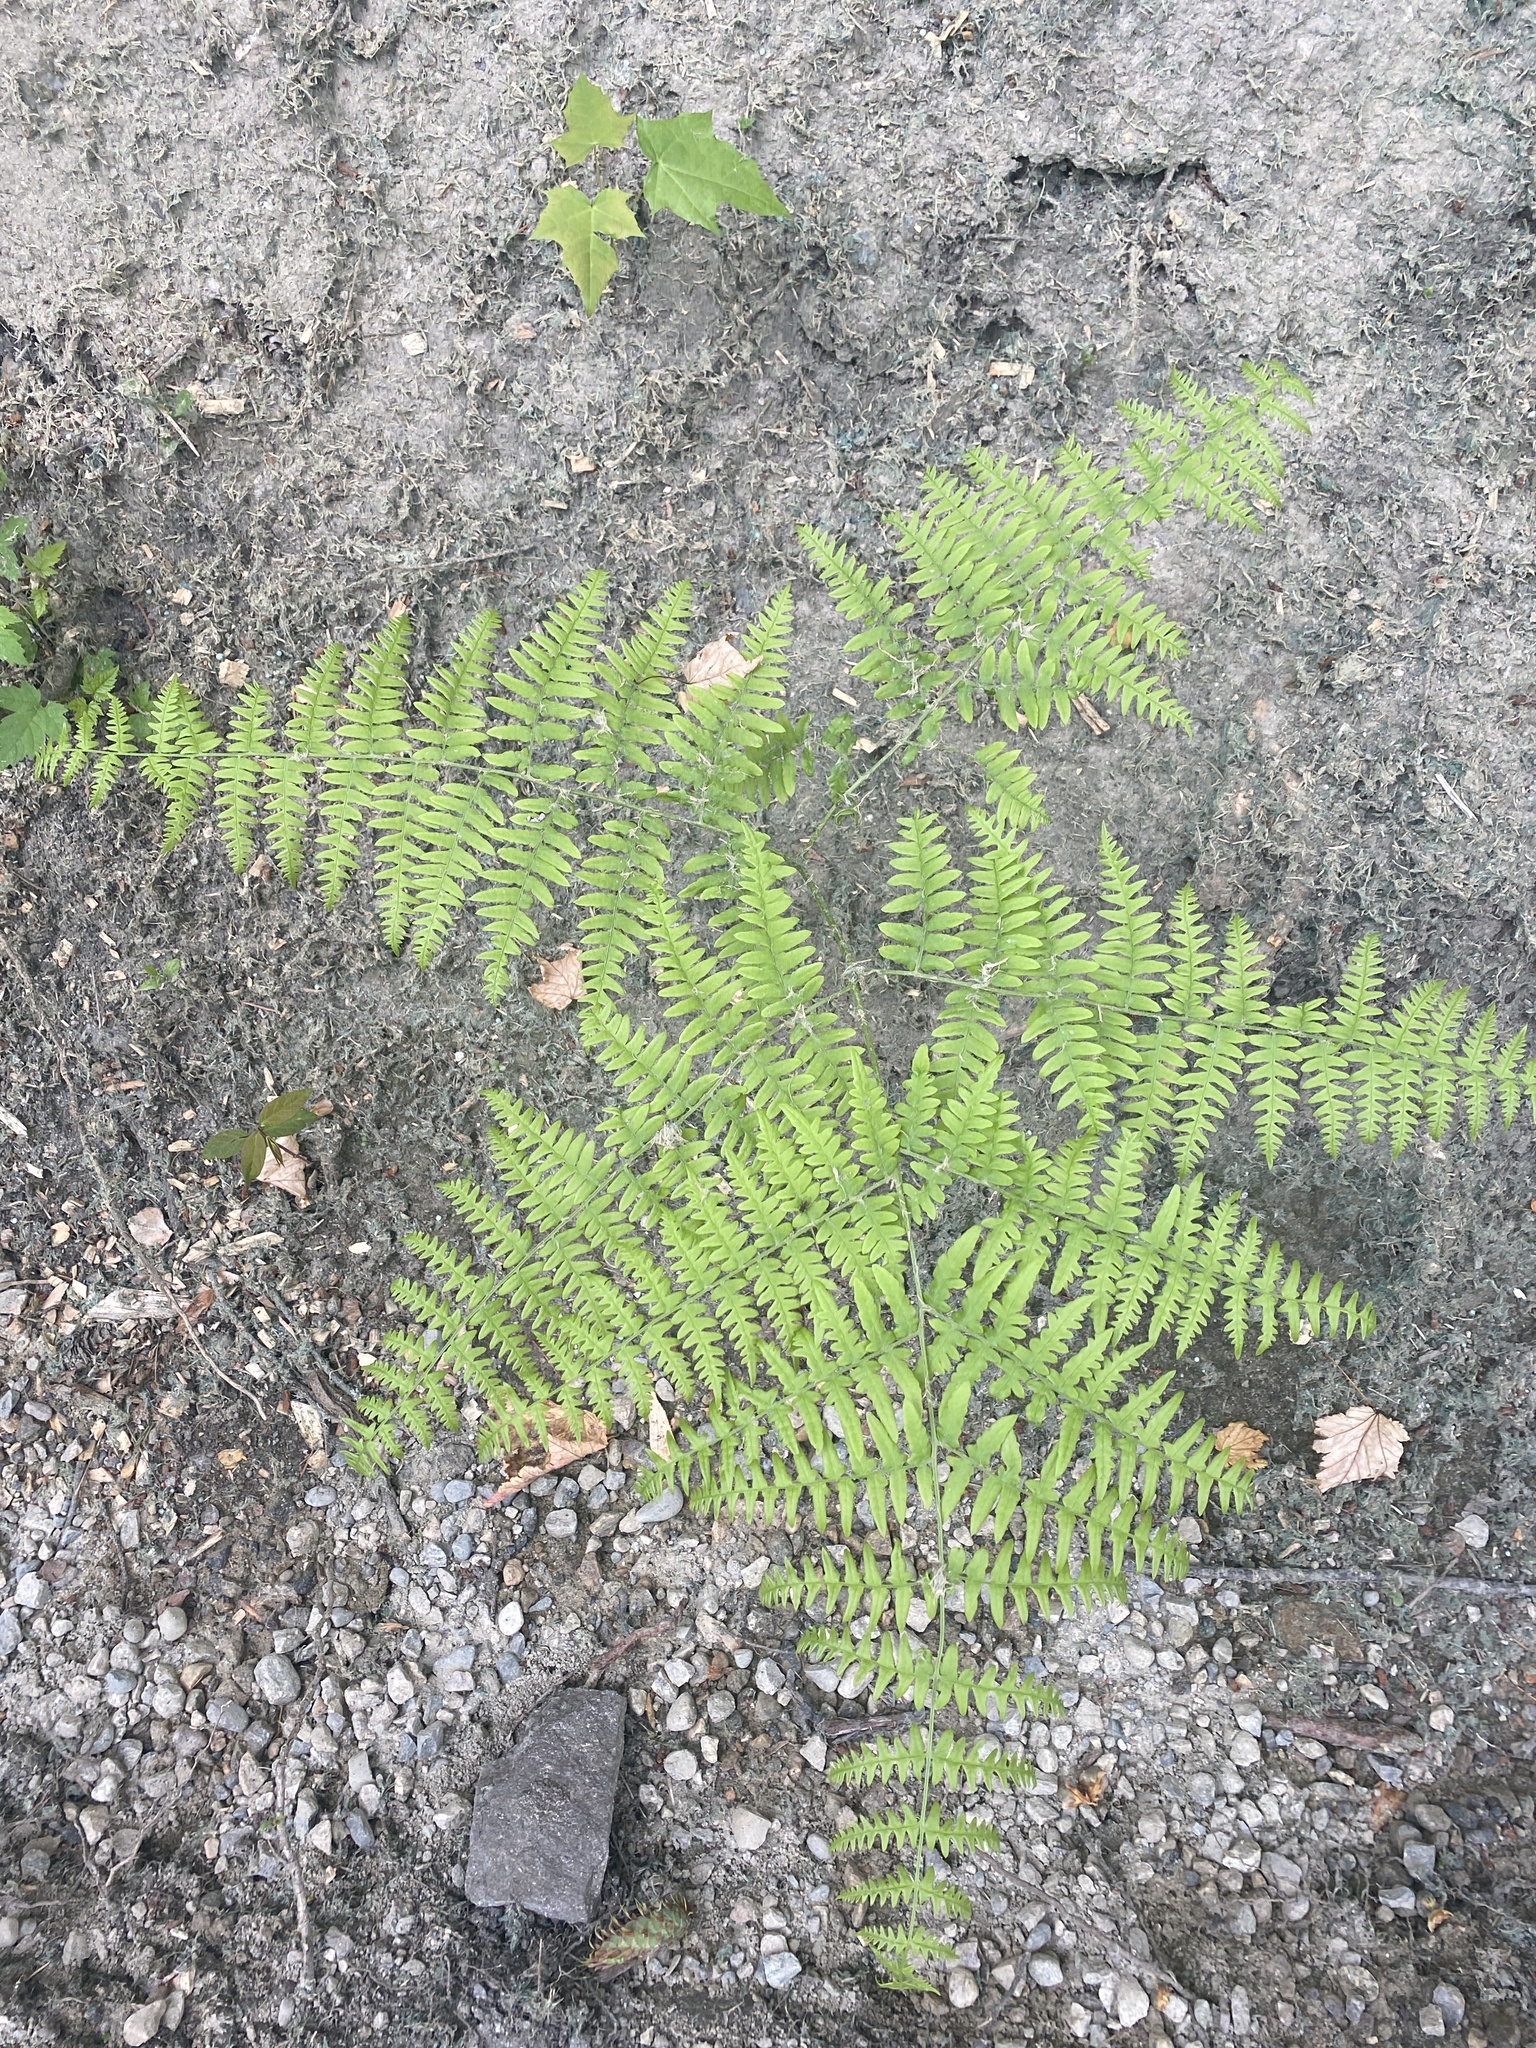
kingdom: Plantae
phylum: Tracheophyta
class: Polypodiopsida
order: Polypodiales
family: Dennstaedtiaceae
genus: Pteridium
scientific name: Pteridium aquilinum
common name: Bracken
